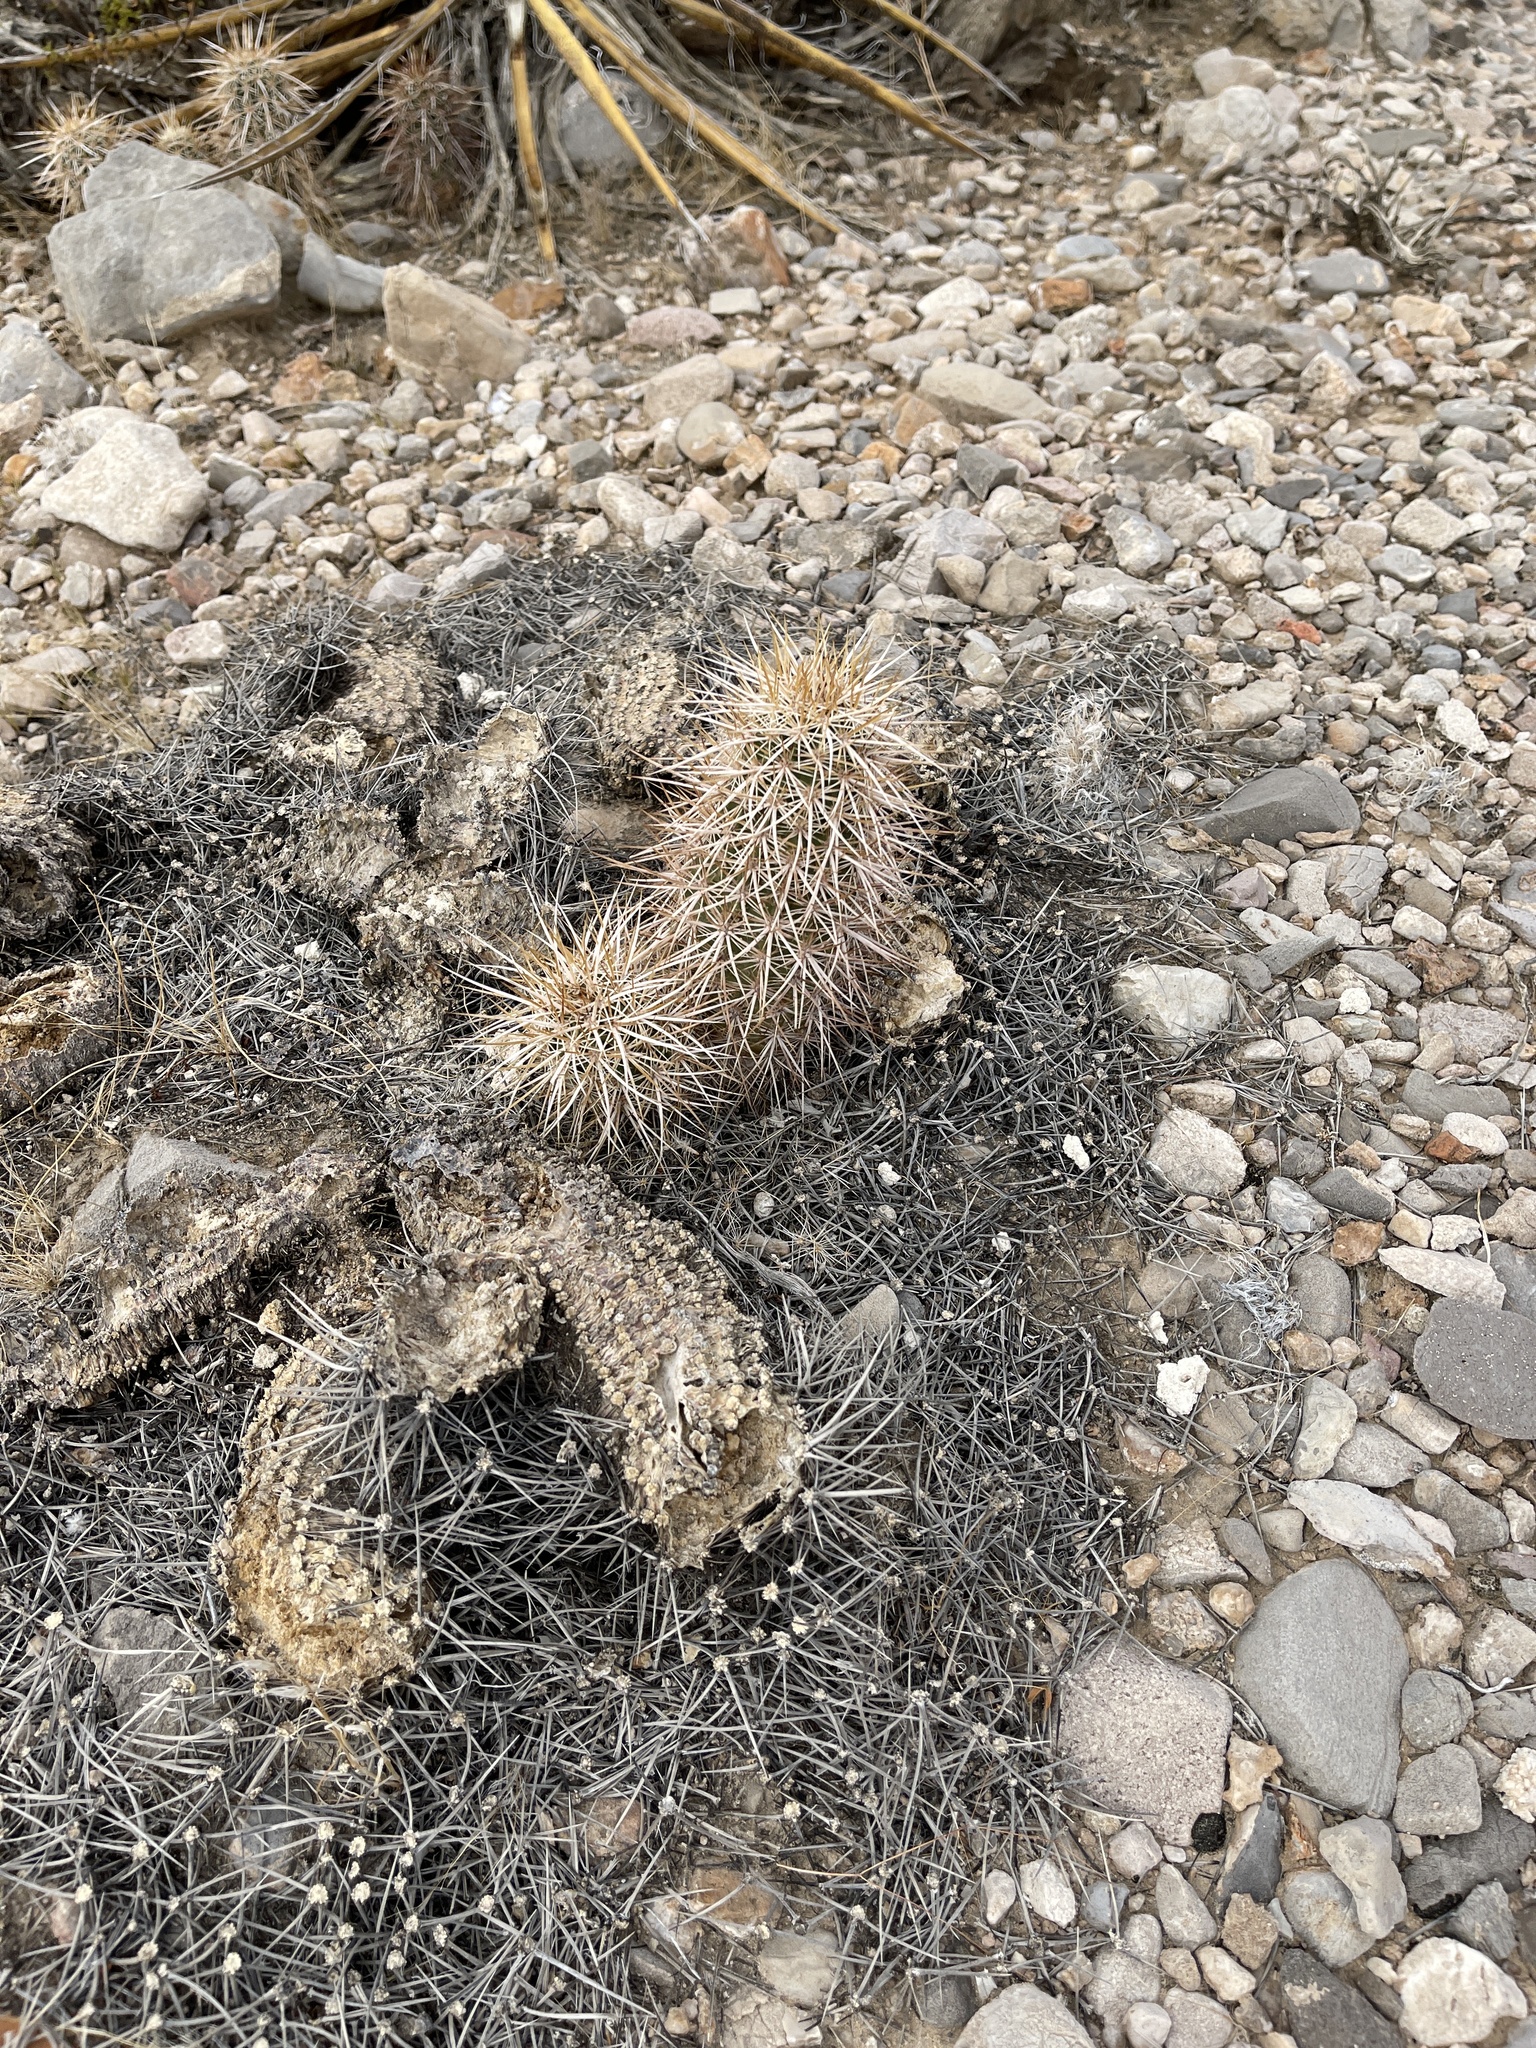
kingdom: Plantae
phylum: Tracheophyta
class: Magnoliopsida
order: Caryophyllales
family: Cactaceae
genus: Echinocereus
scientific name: Echinocereus engelmannii
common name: Engelmann's hedgehog cactus
